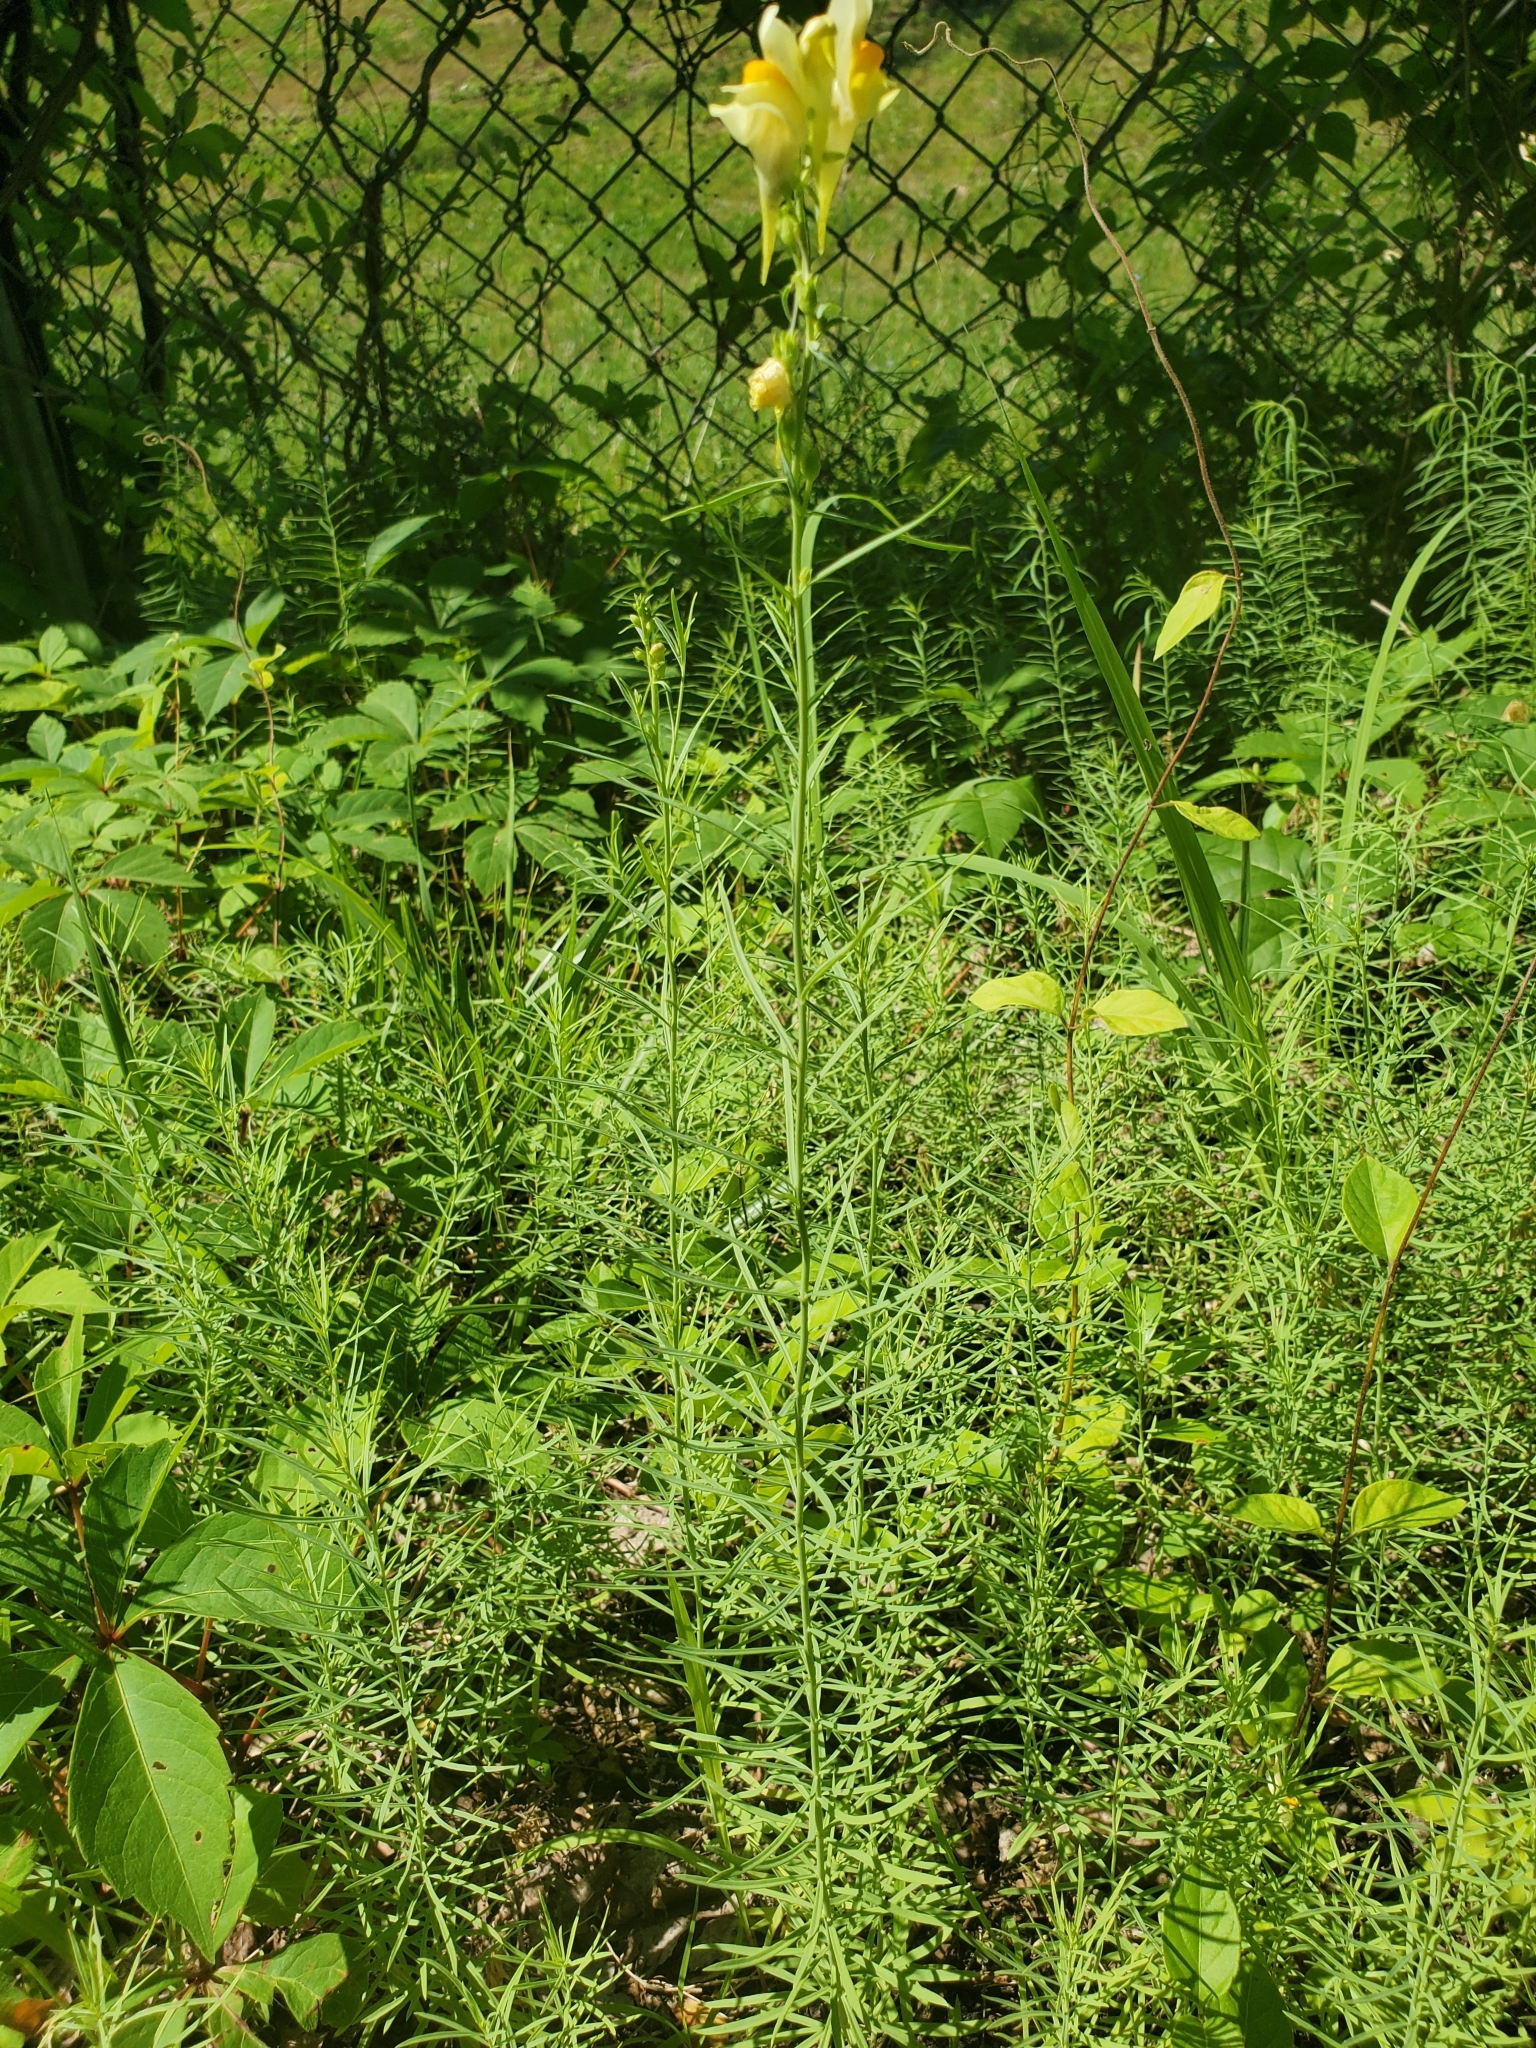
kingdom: Plantae
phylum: Tracheophyta
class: Magnoliopsida
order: Lamiales
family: Plantaginaceae
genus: Linaria
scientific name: Linaria vulgaris
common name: Butter and eggs
